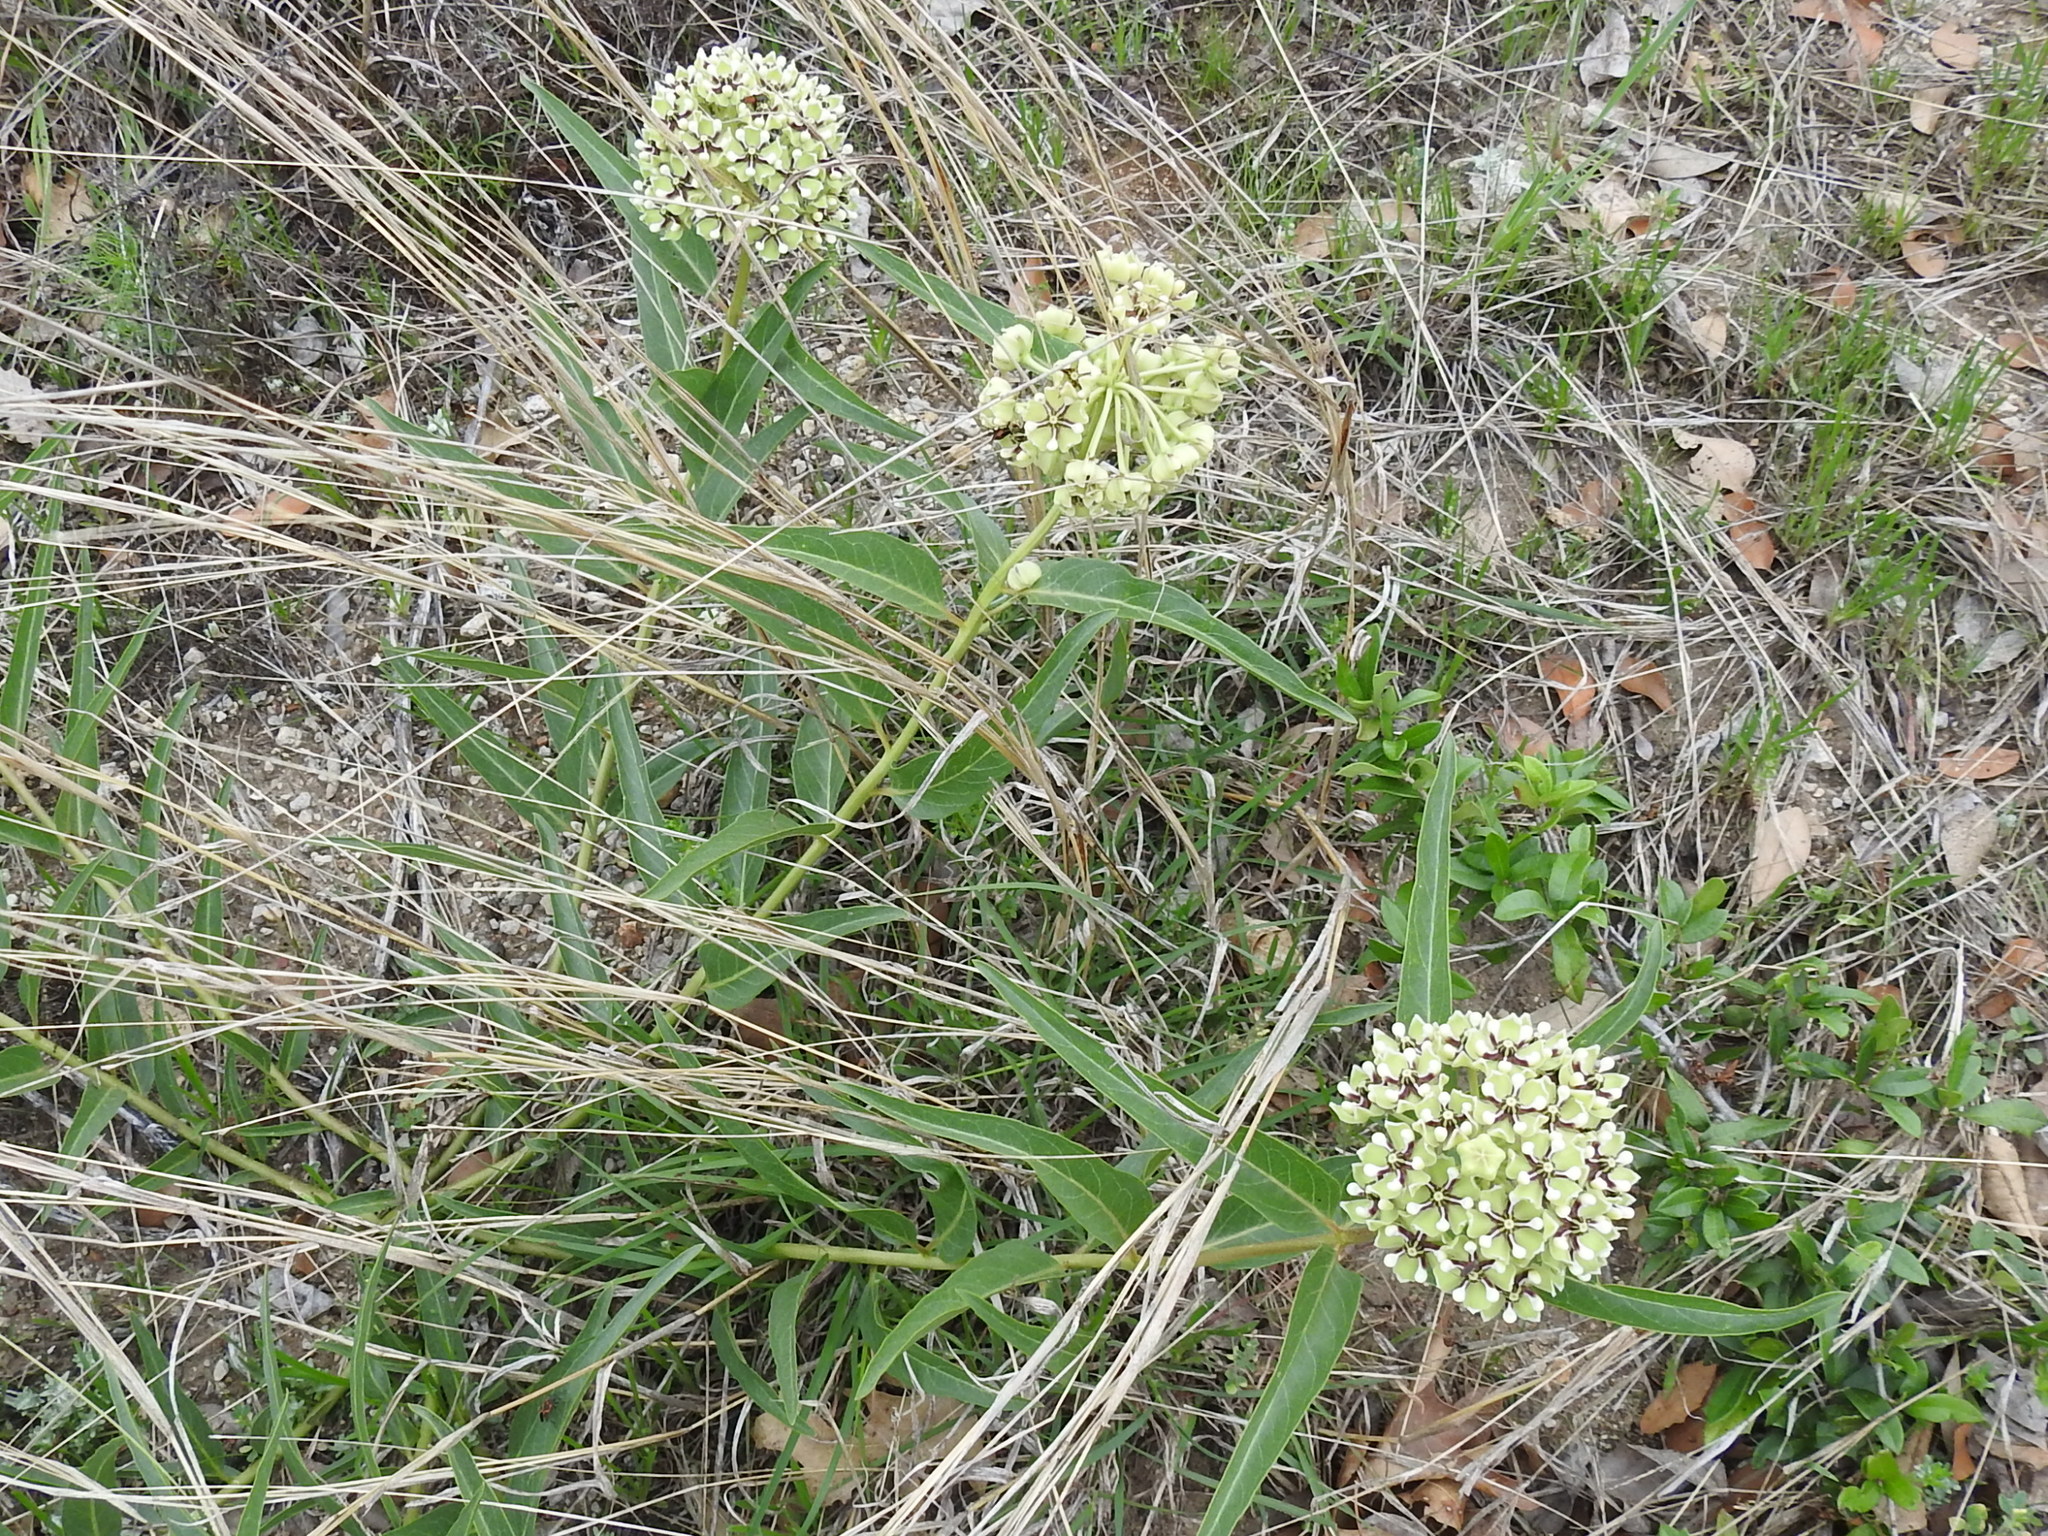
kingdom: Plantae
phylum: Tracheophyta
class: Magnoliopsida
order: Gentianales
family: Apocynaceae
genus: Asclepias
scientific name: Asclepias asperula
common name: Antelope horns
